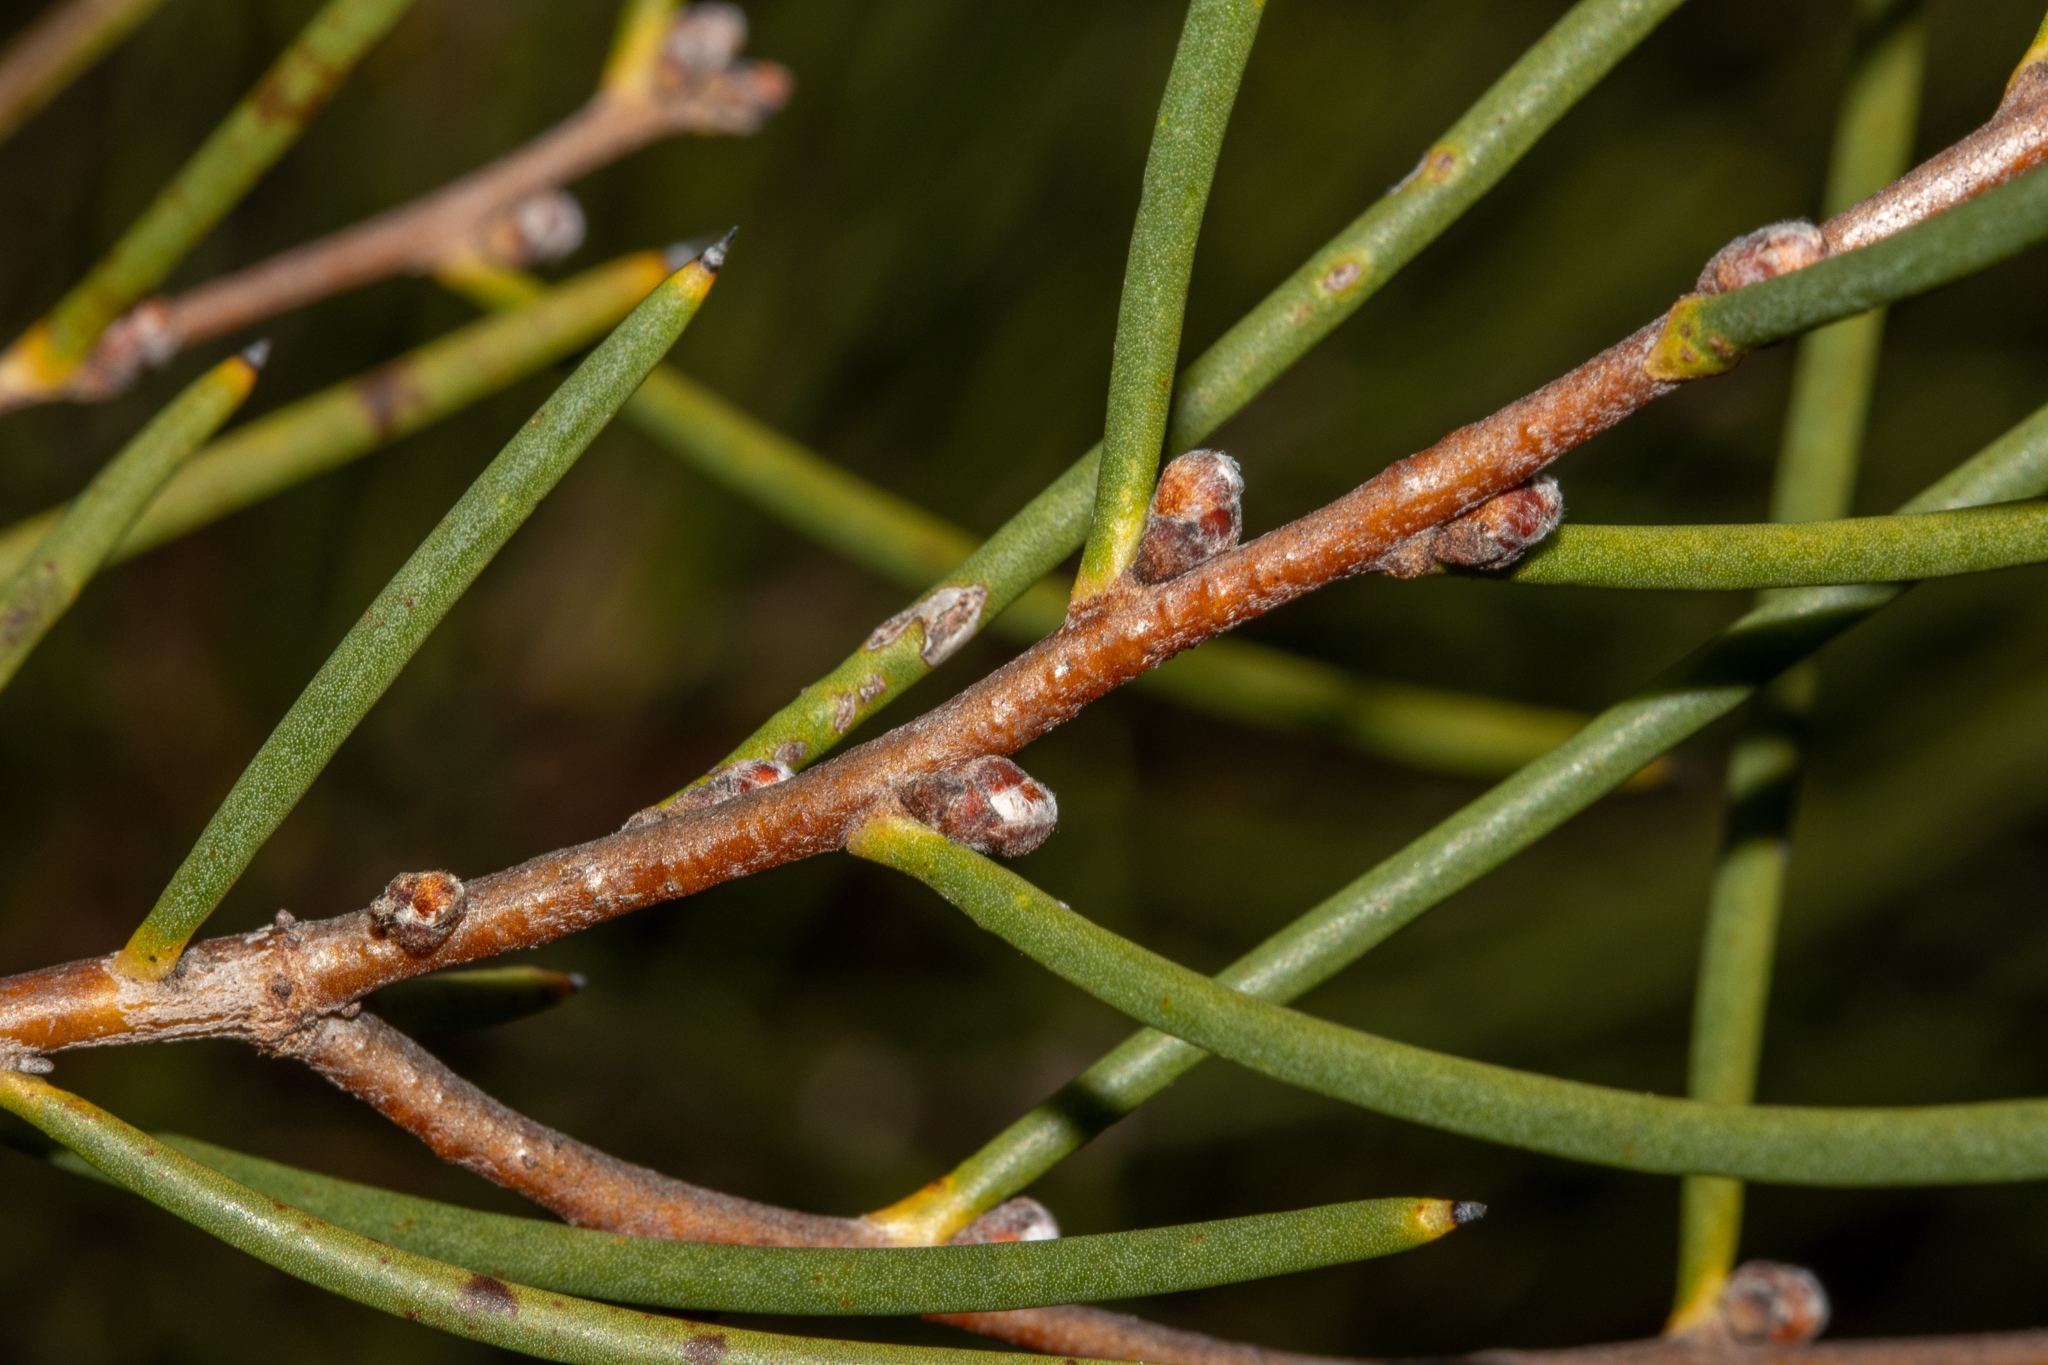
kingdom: Plantae
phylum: Tracheophyta
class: Magnoliopsida
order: Proteales
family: Proteaceae
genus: Hakea
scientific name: Hakea rostrata
